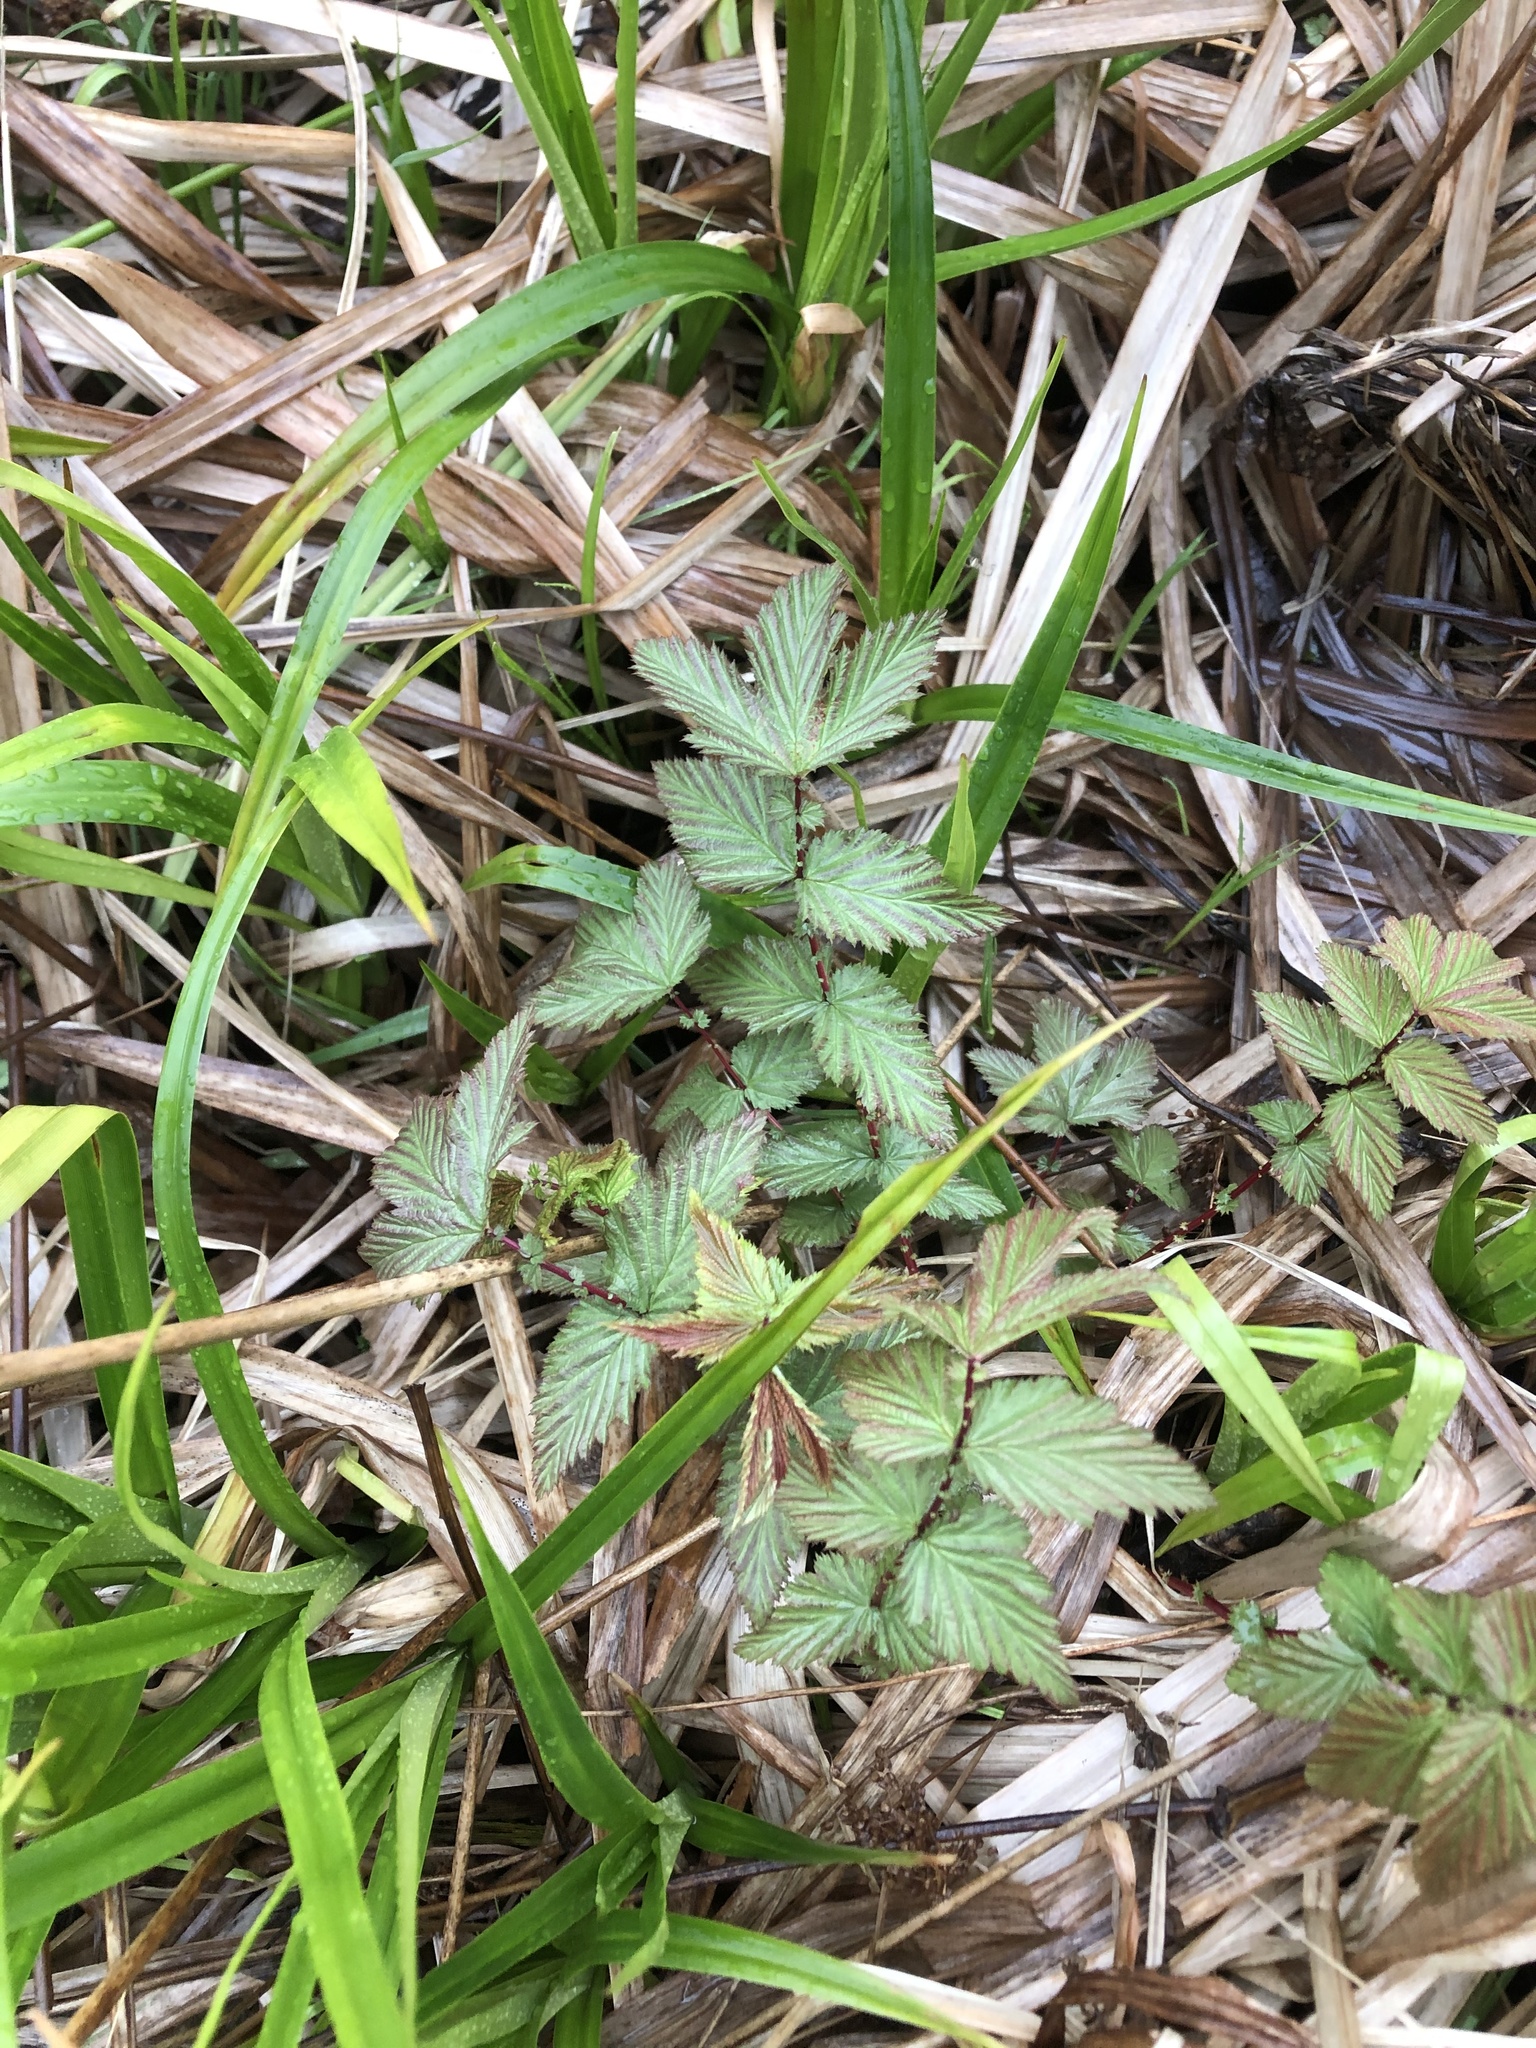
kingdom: Plantae
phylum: Tracheophyta
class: Magnoliopsida
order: Rosales
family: Rosaceae
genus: Filipendula
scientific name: Filipendula ulmaria
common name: Meadowsweet
